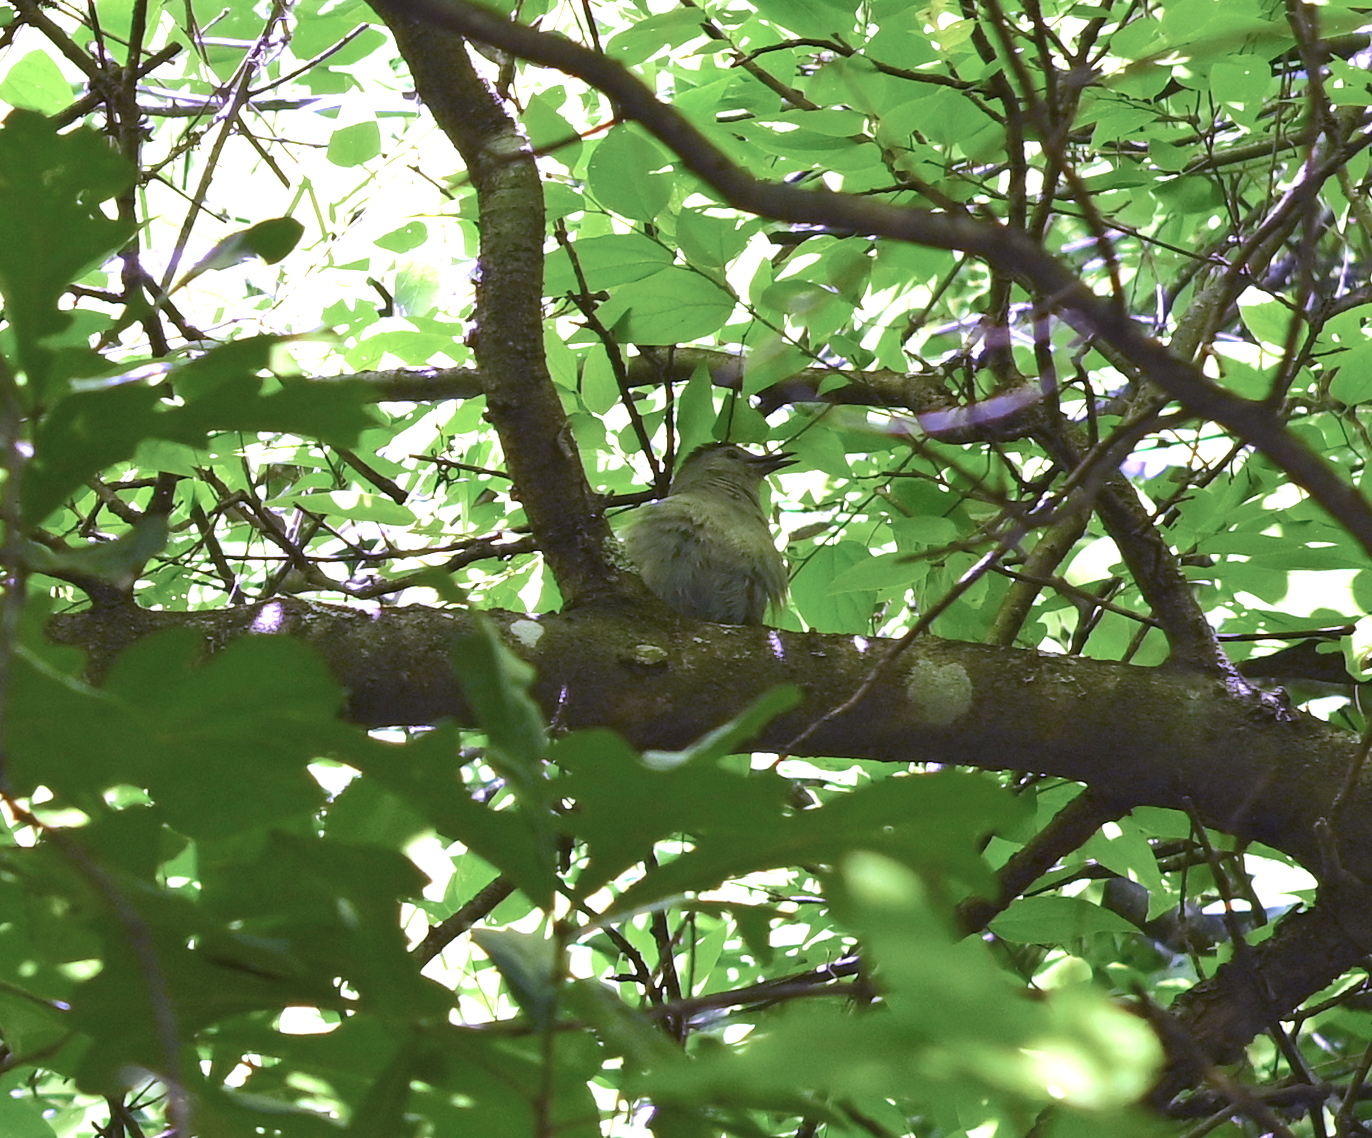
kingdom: Animalia
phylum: Chordata
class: Aves
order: Passeriformes
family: Mimidae
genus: Dumetella
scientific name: Dumetella carolinensis
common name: Gray catbird
